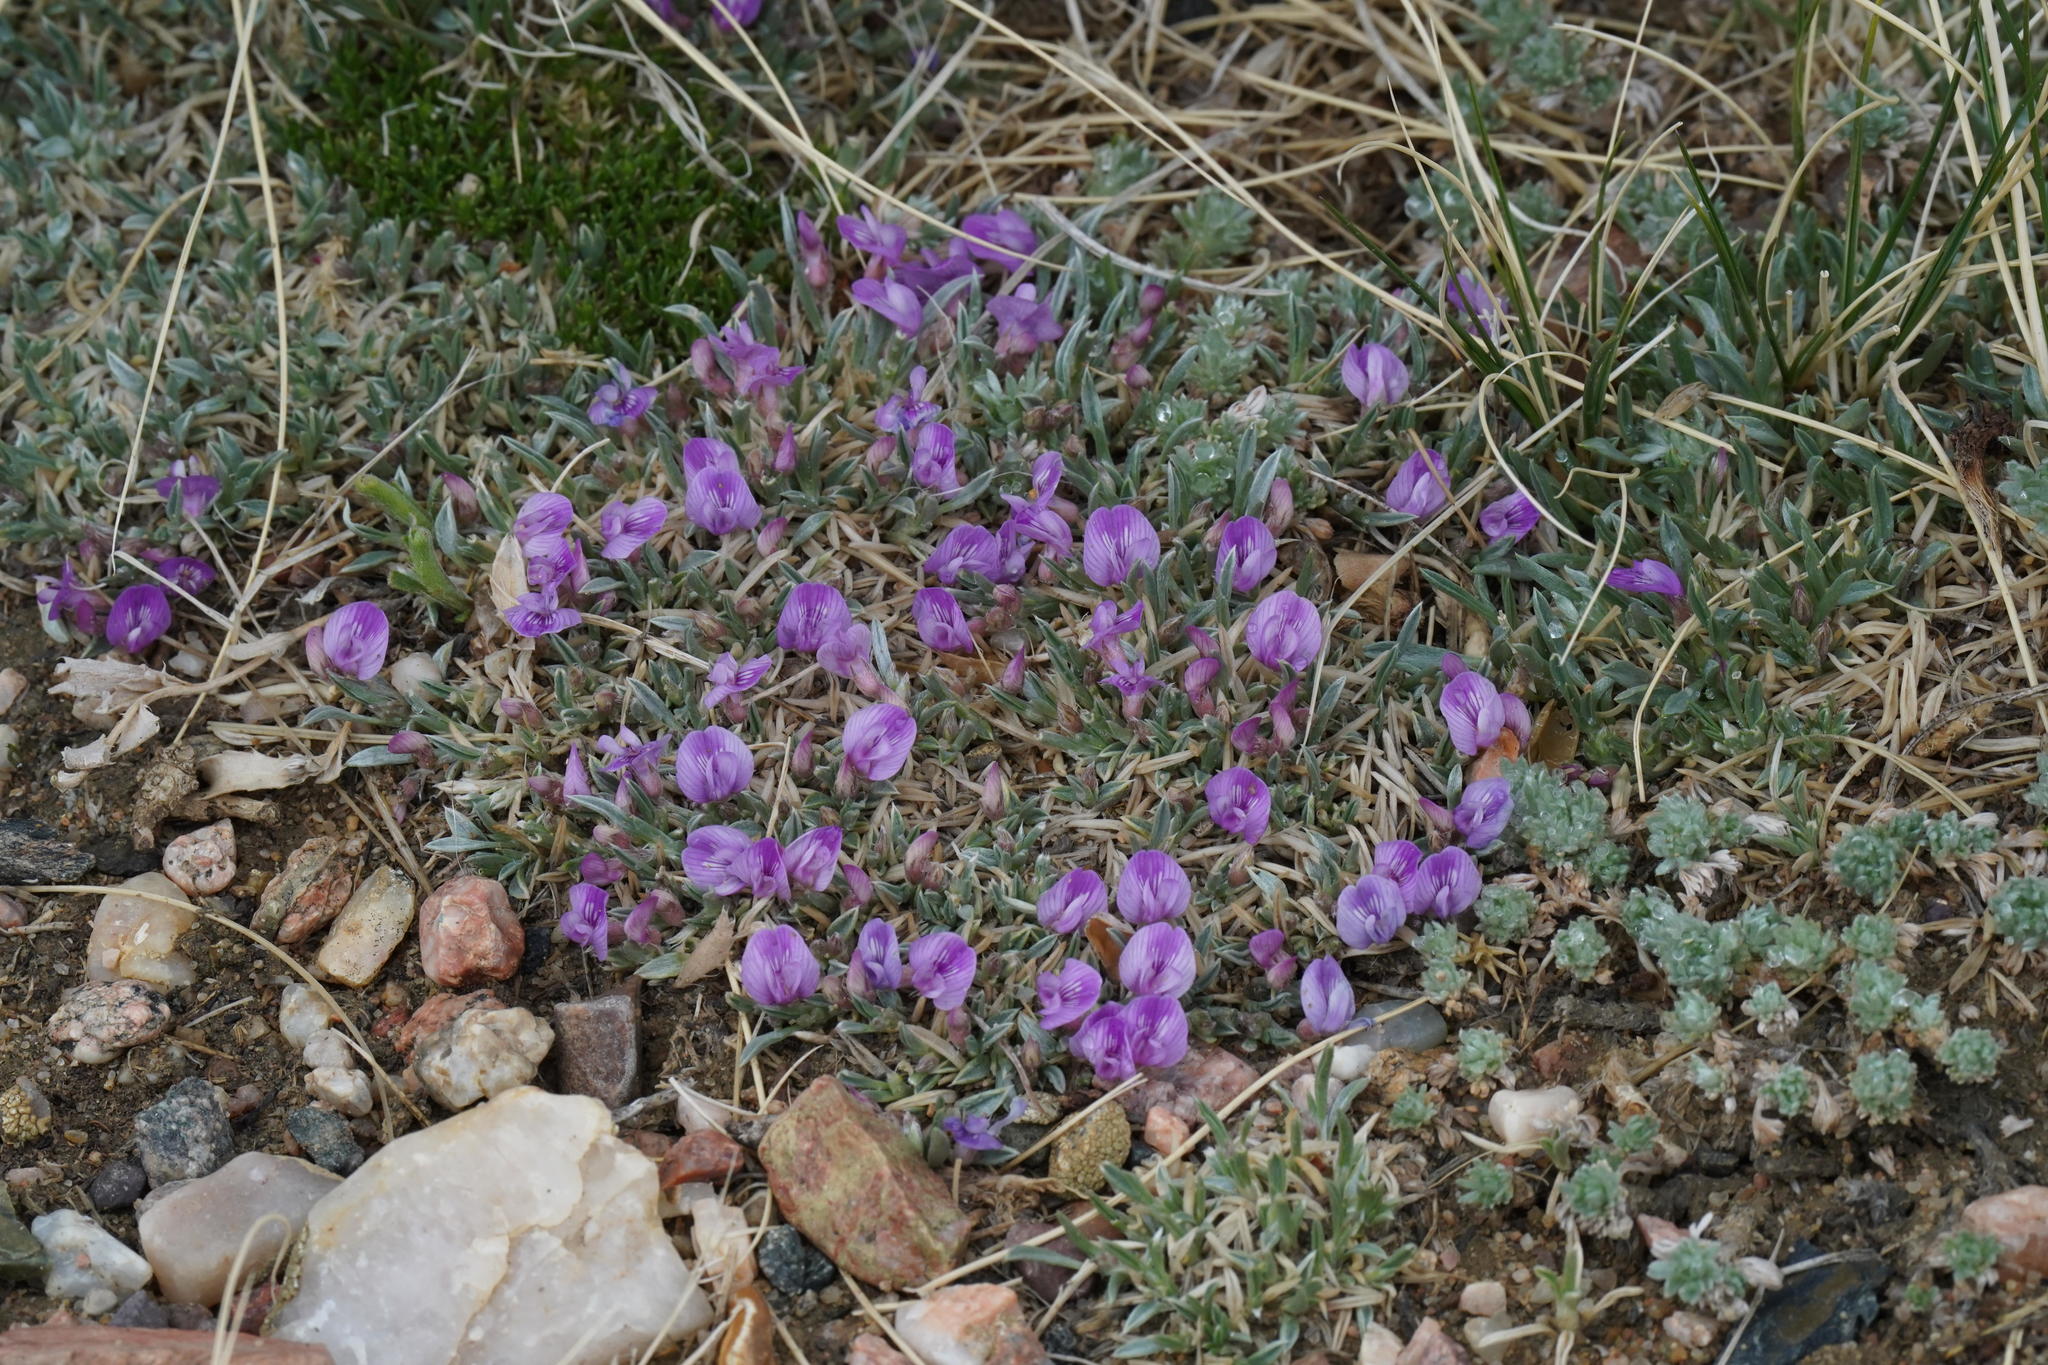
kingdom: Plantae
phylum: Tracheophyta
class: Magnoliopsida
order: Fabales
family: Fabaceae
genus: Astragalus
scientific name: Astragalus spatulatus
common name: Draba milk-vetch
